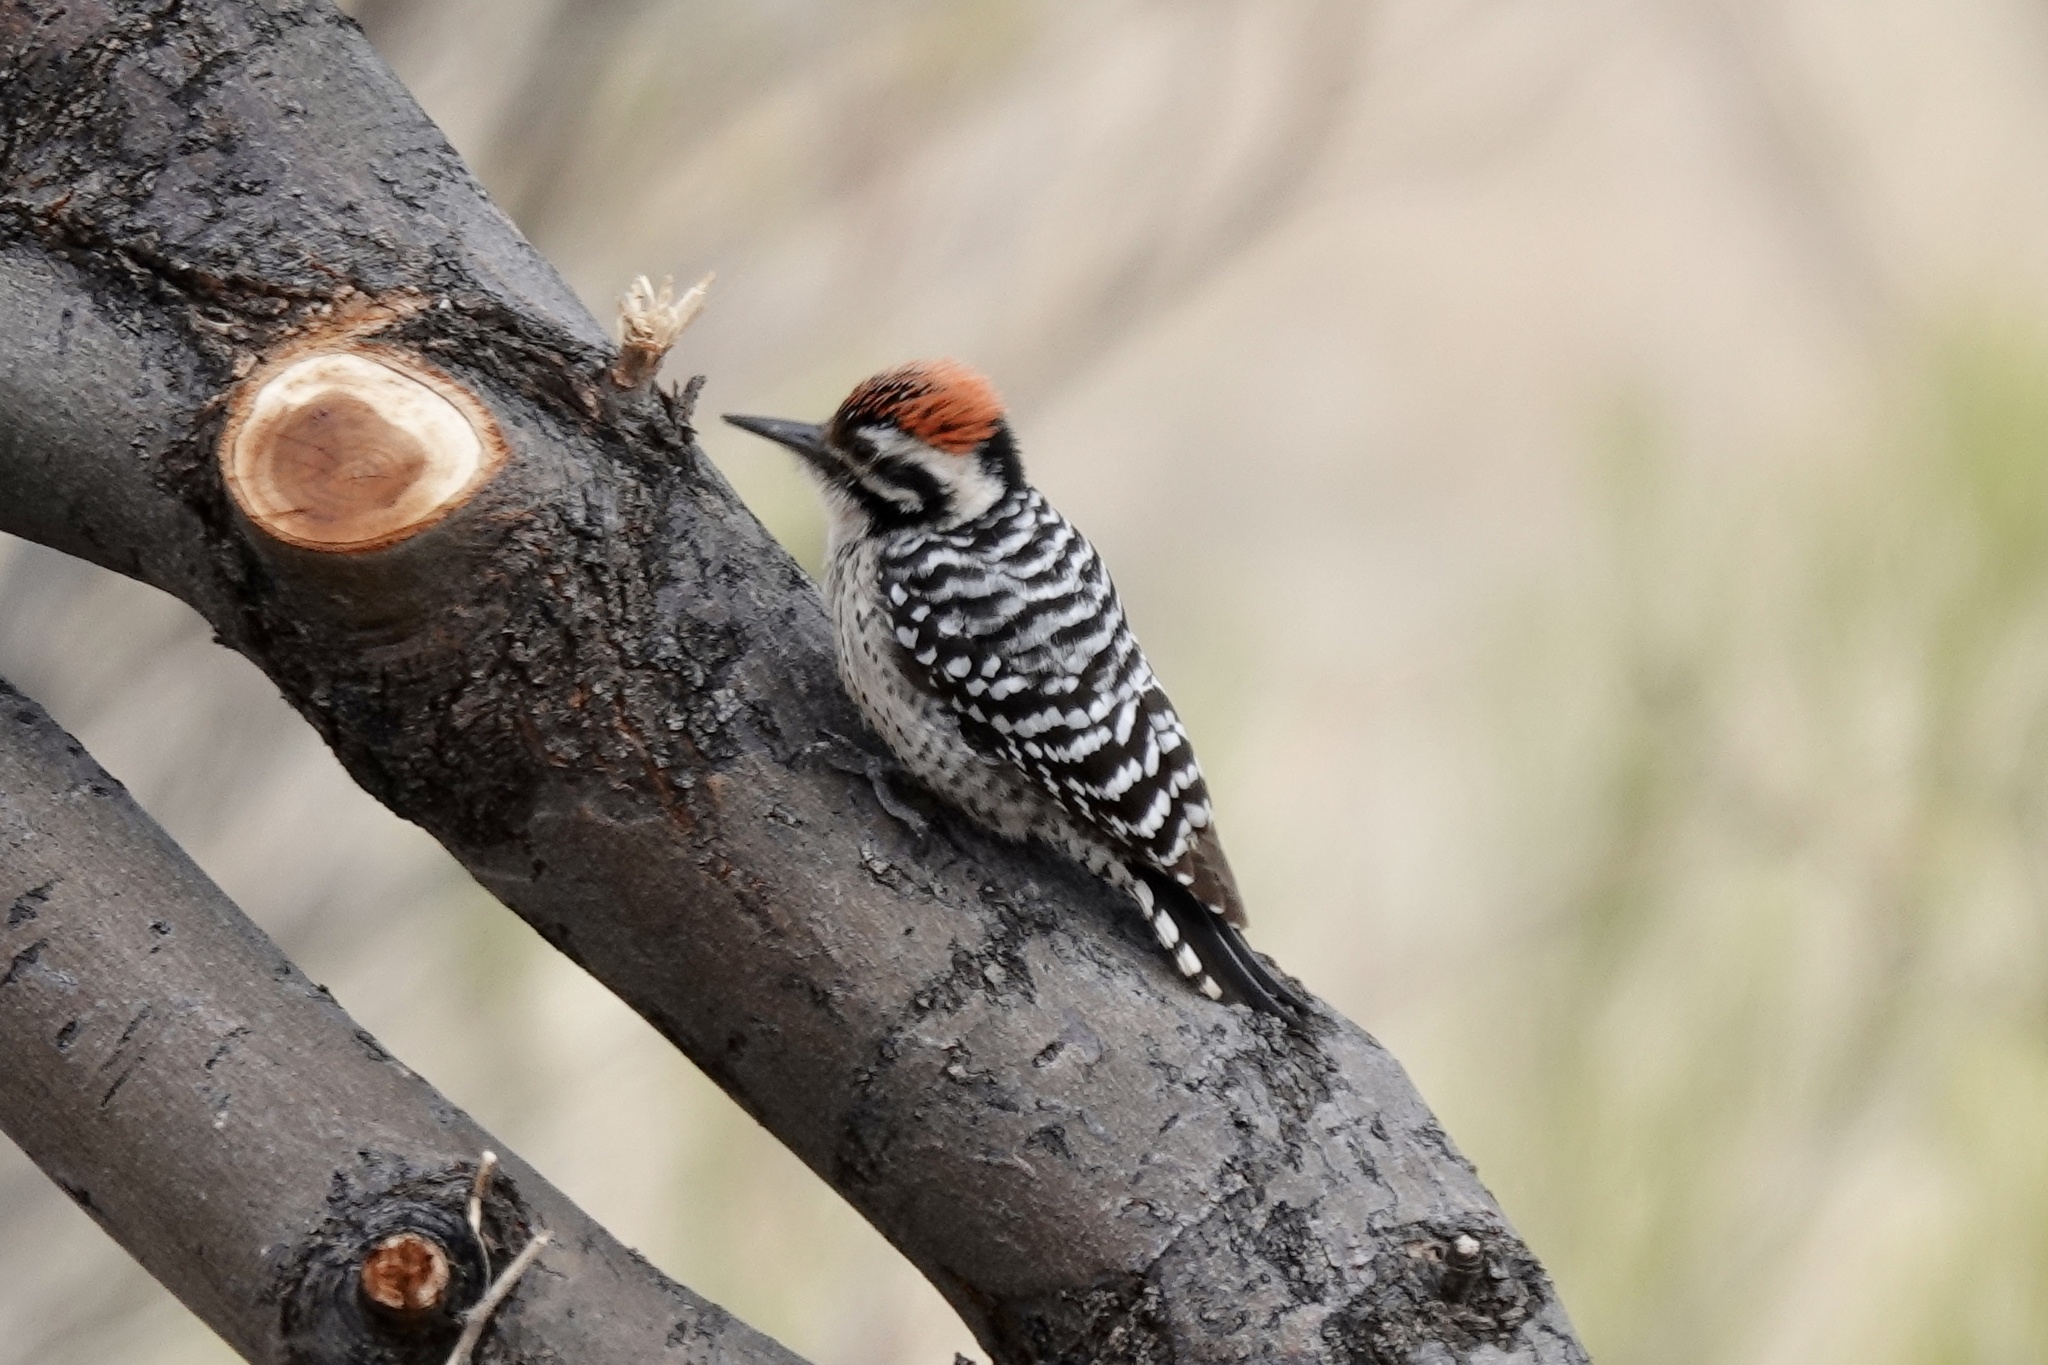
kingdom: Animalia
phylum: Chordata
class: Aves
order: Piciformes
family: Picidae
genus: Dryobates
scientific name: Dryobates scalaris
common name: Ladder-backed woodpecker
